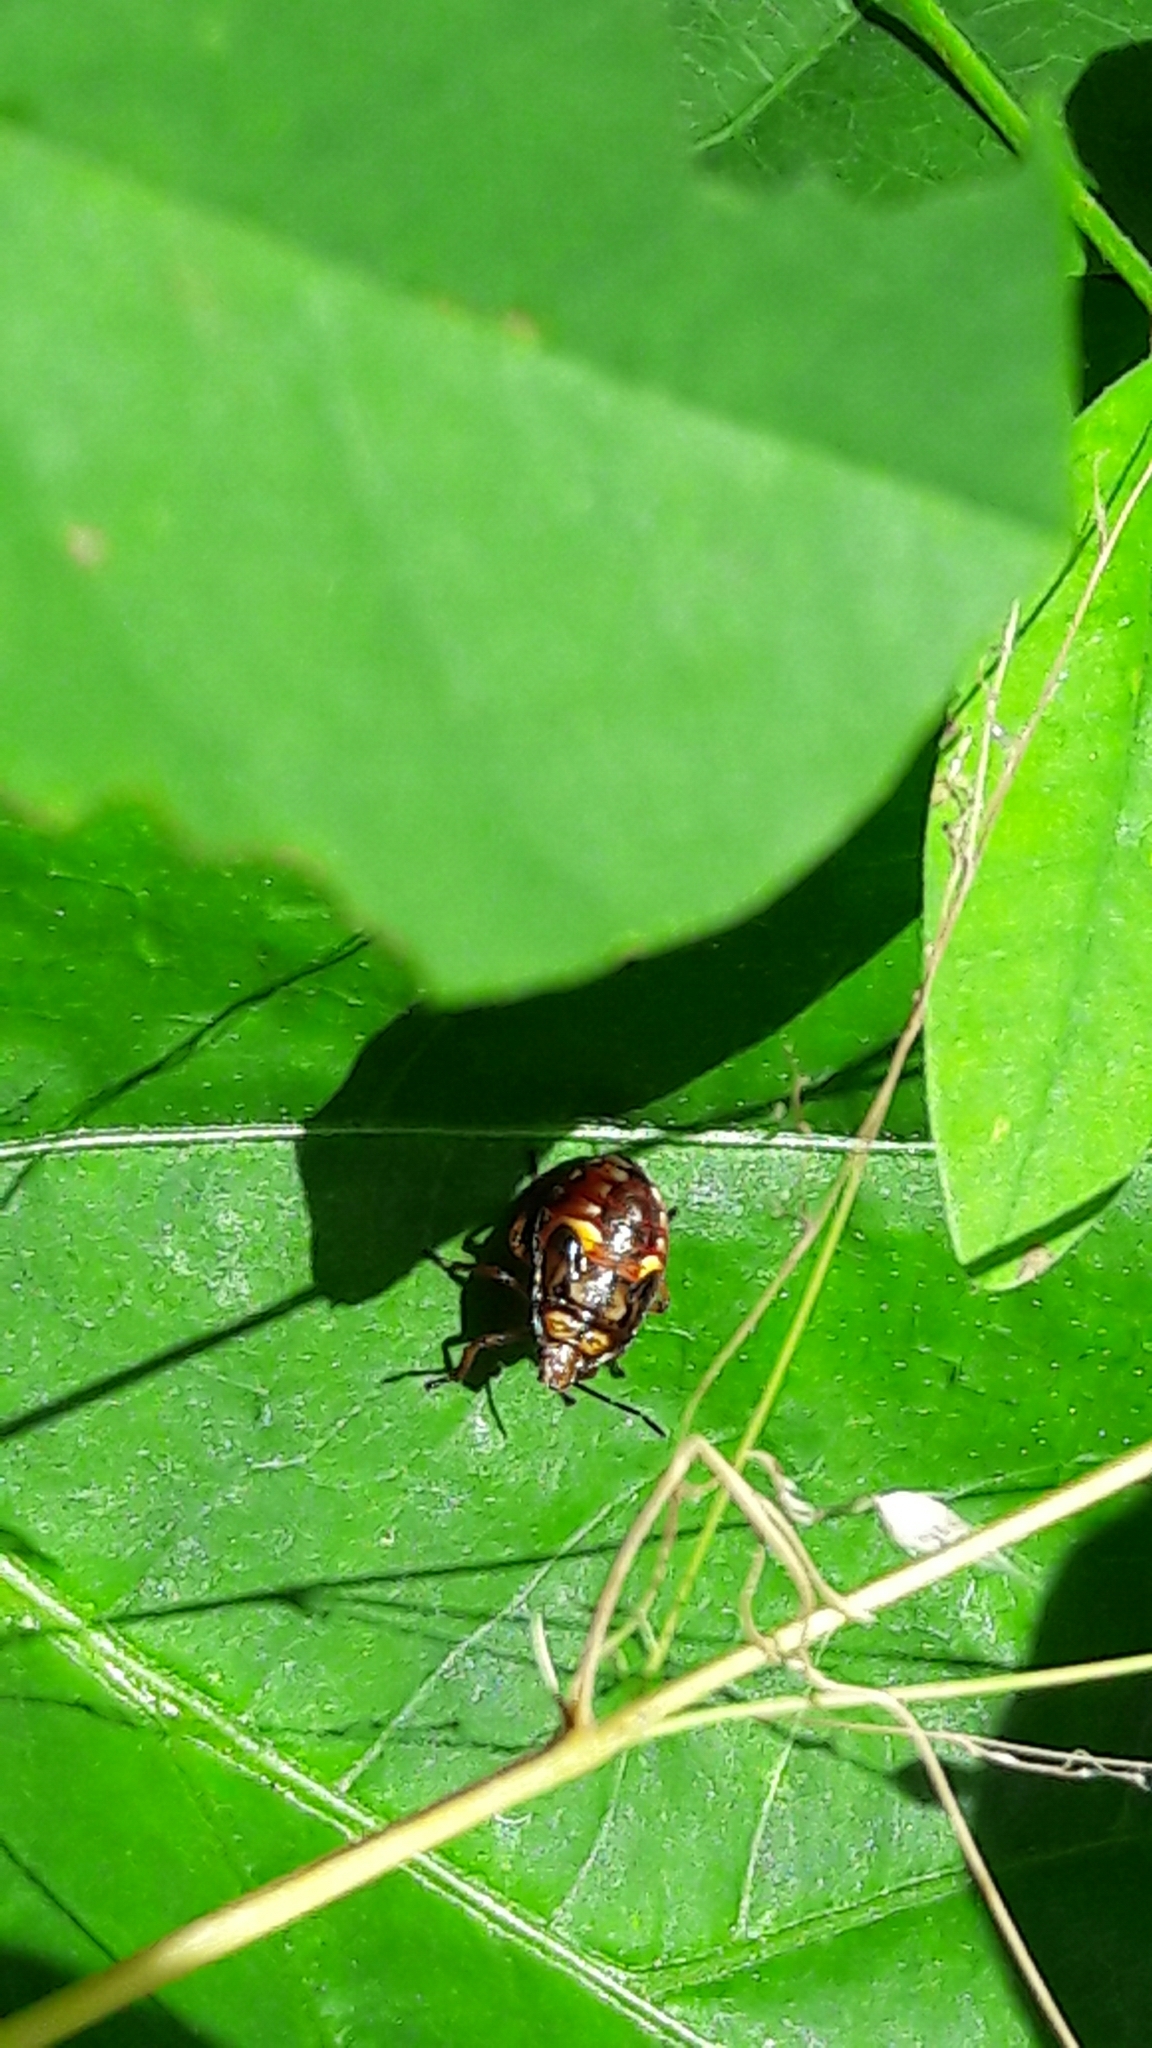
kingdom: Animalia
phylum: Arthropoda
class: Insecta
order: Hemiptera
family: Pentatomidae
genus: Podisus
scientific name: Podisus fuscescens
